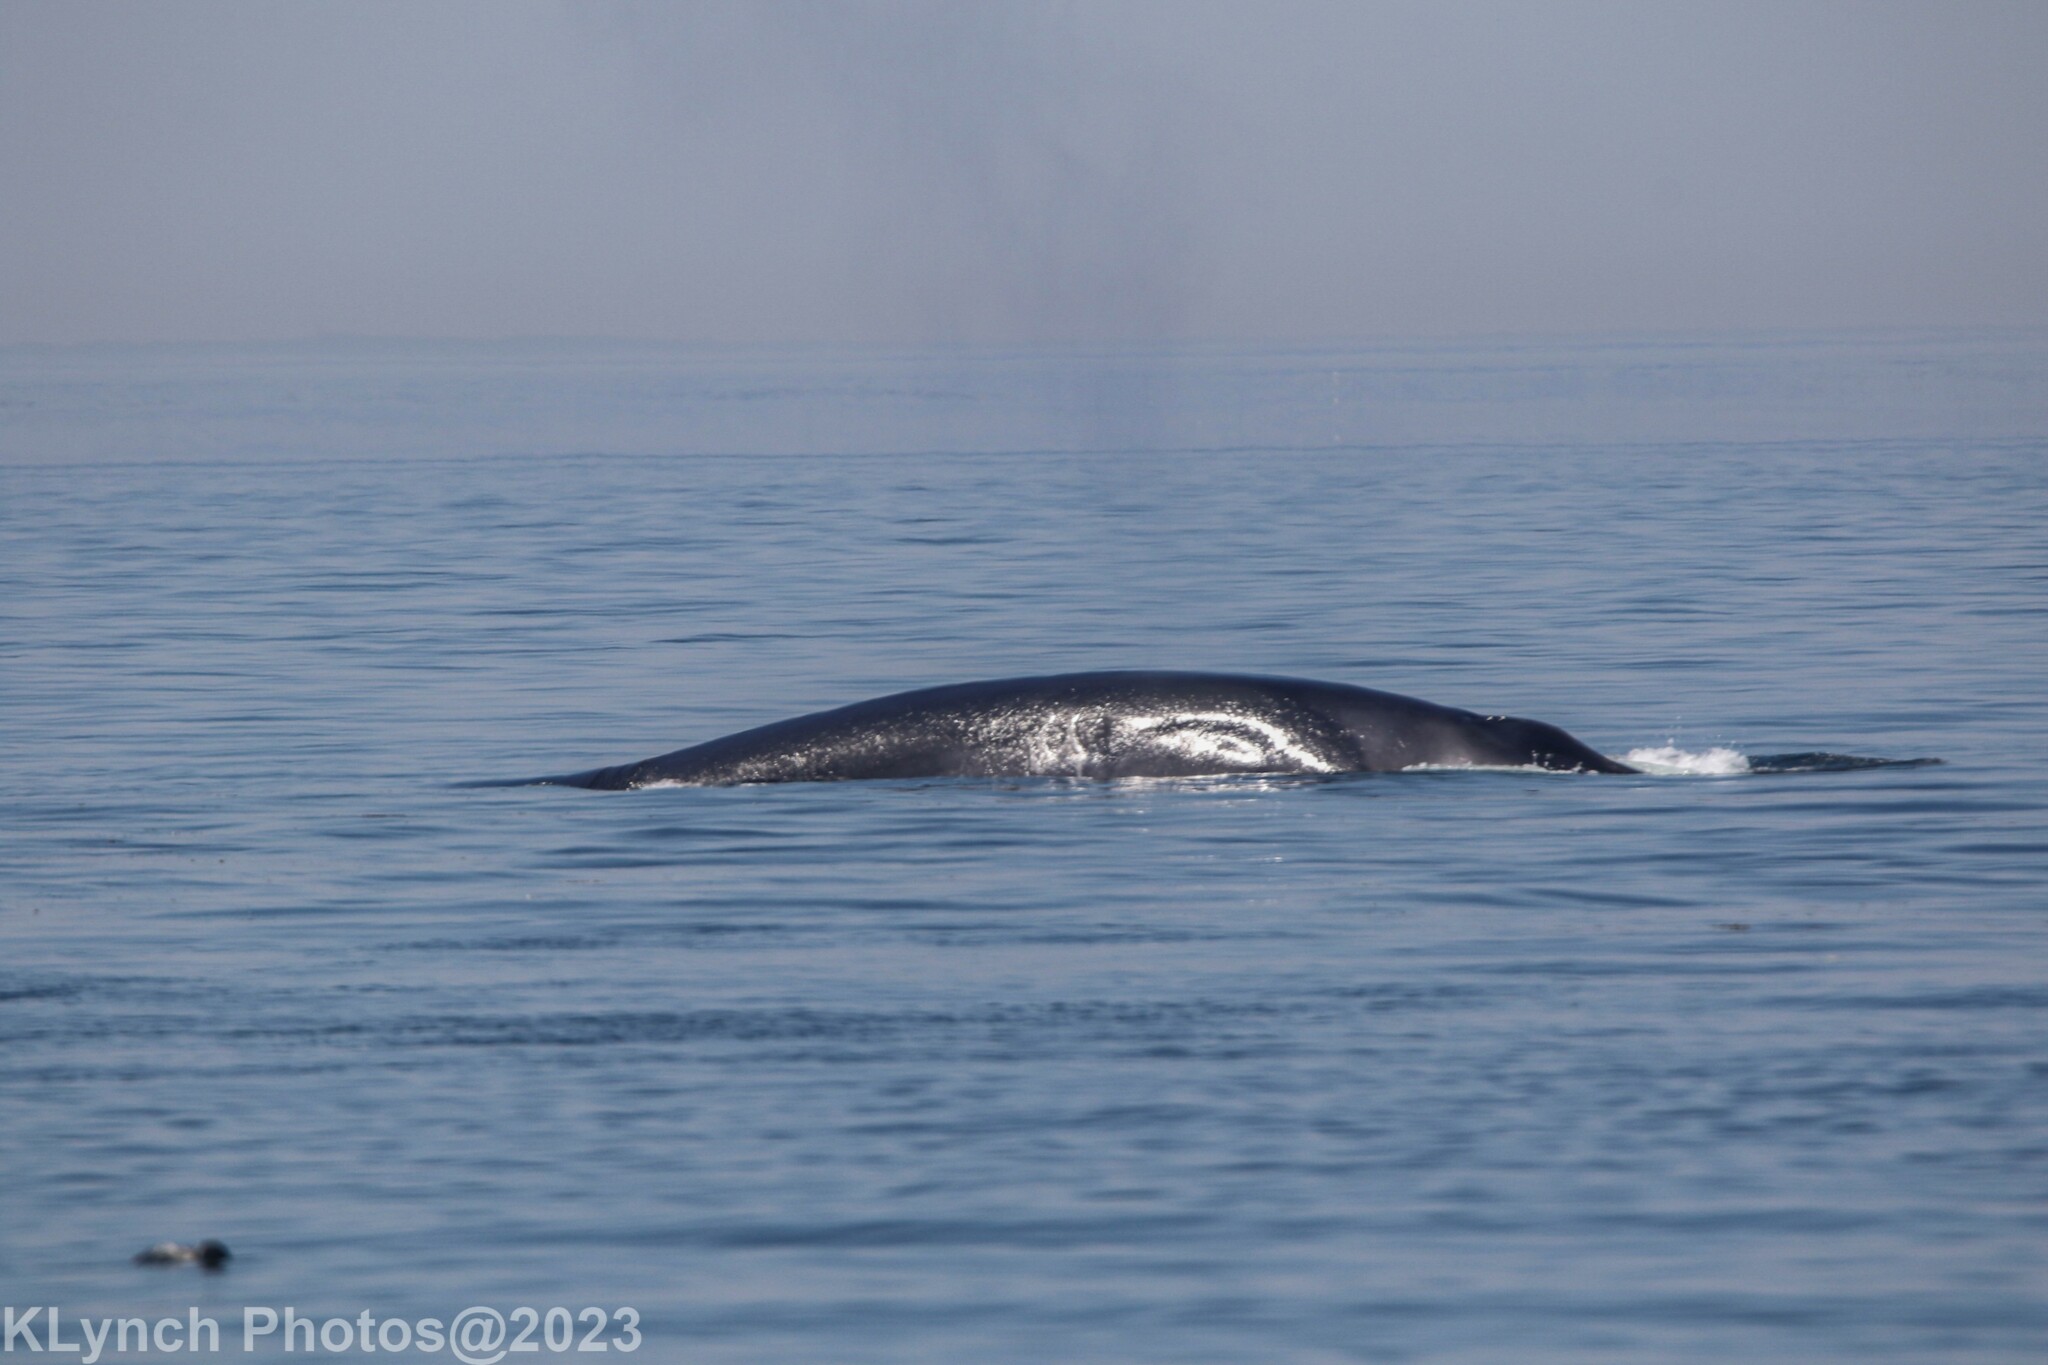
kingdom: Animalia
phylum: Chordata
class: Mammalia
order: Cetacea
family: Balaenopteridae
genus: Balaenoptera
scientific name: Balaenoptera physalus
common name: Fin whale
